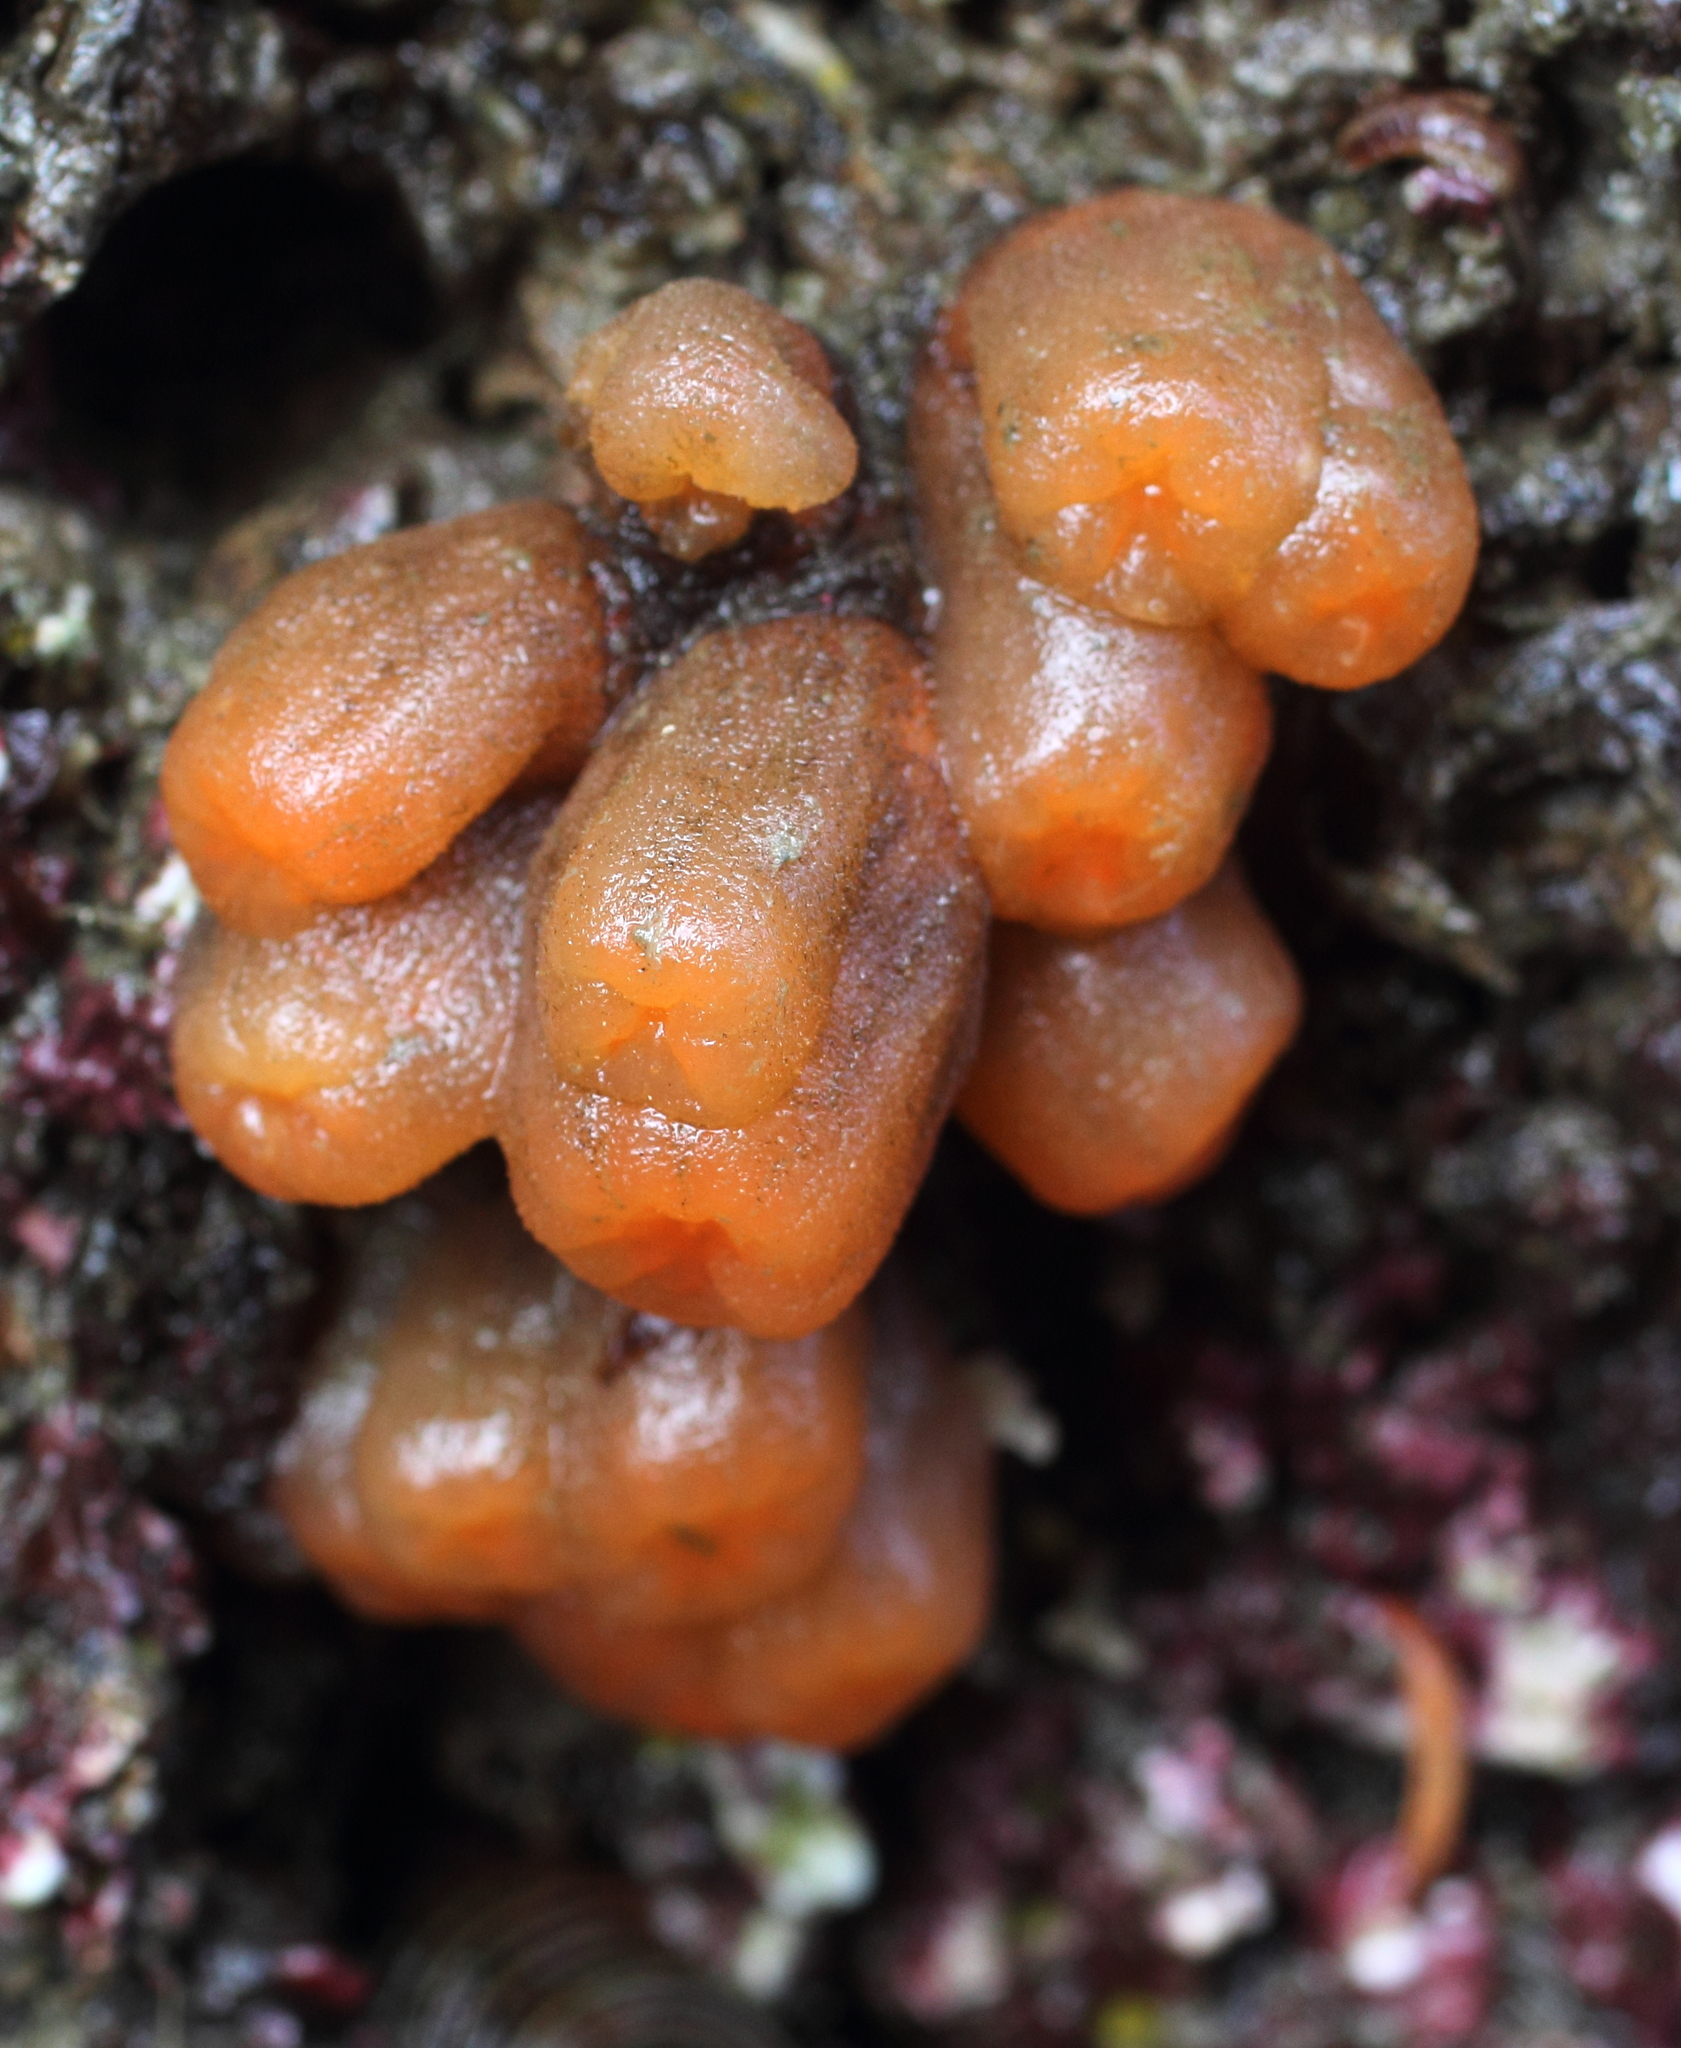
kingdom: Animalia
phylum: Chordata
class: Ascidiacea
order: Aplousobranchia
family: Polyclinidae
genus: Aplidium
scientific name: Aplidium coei
